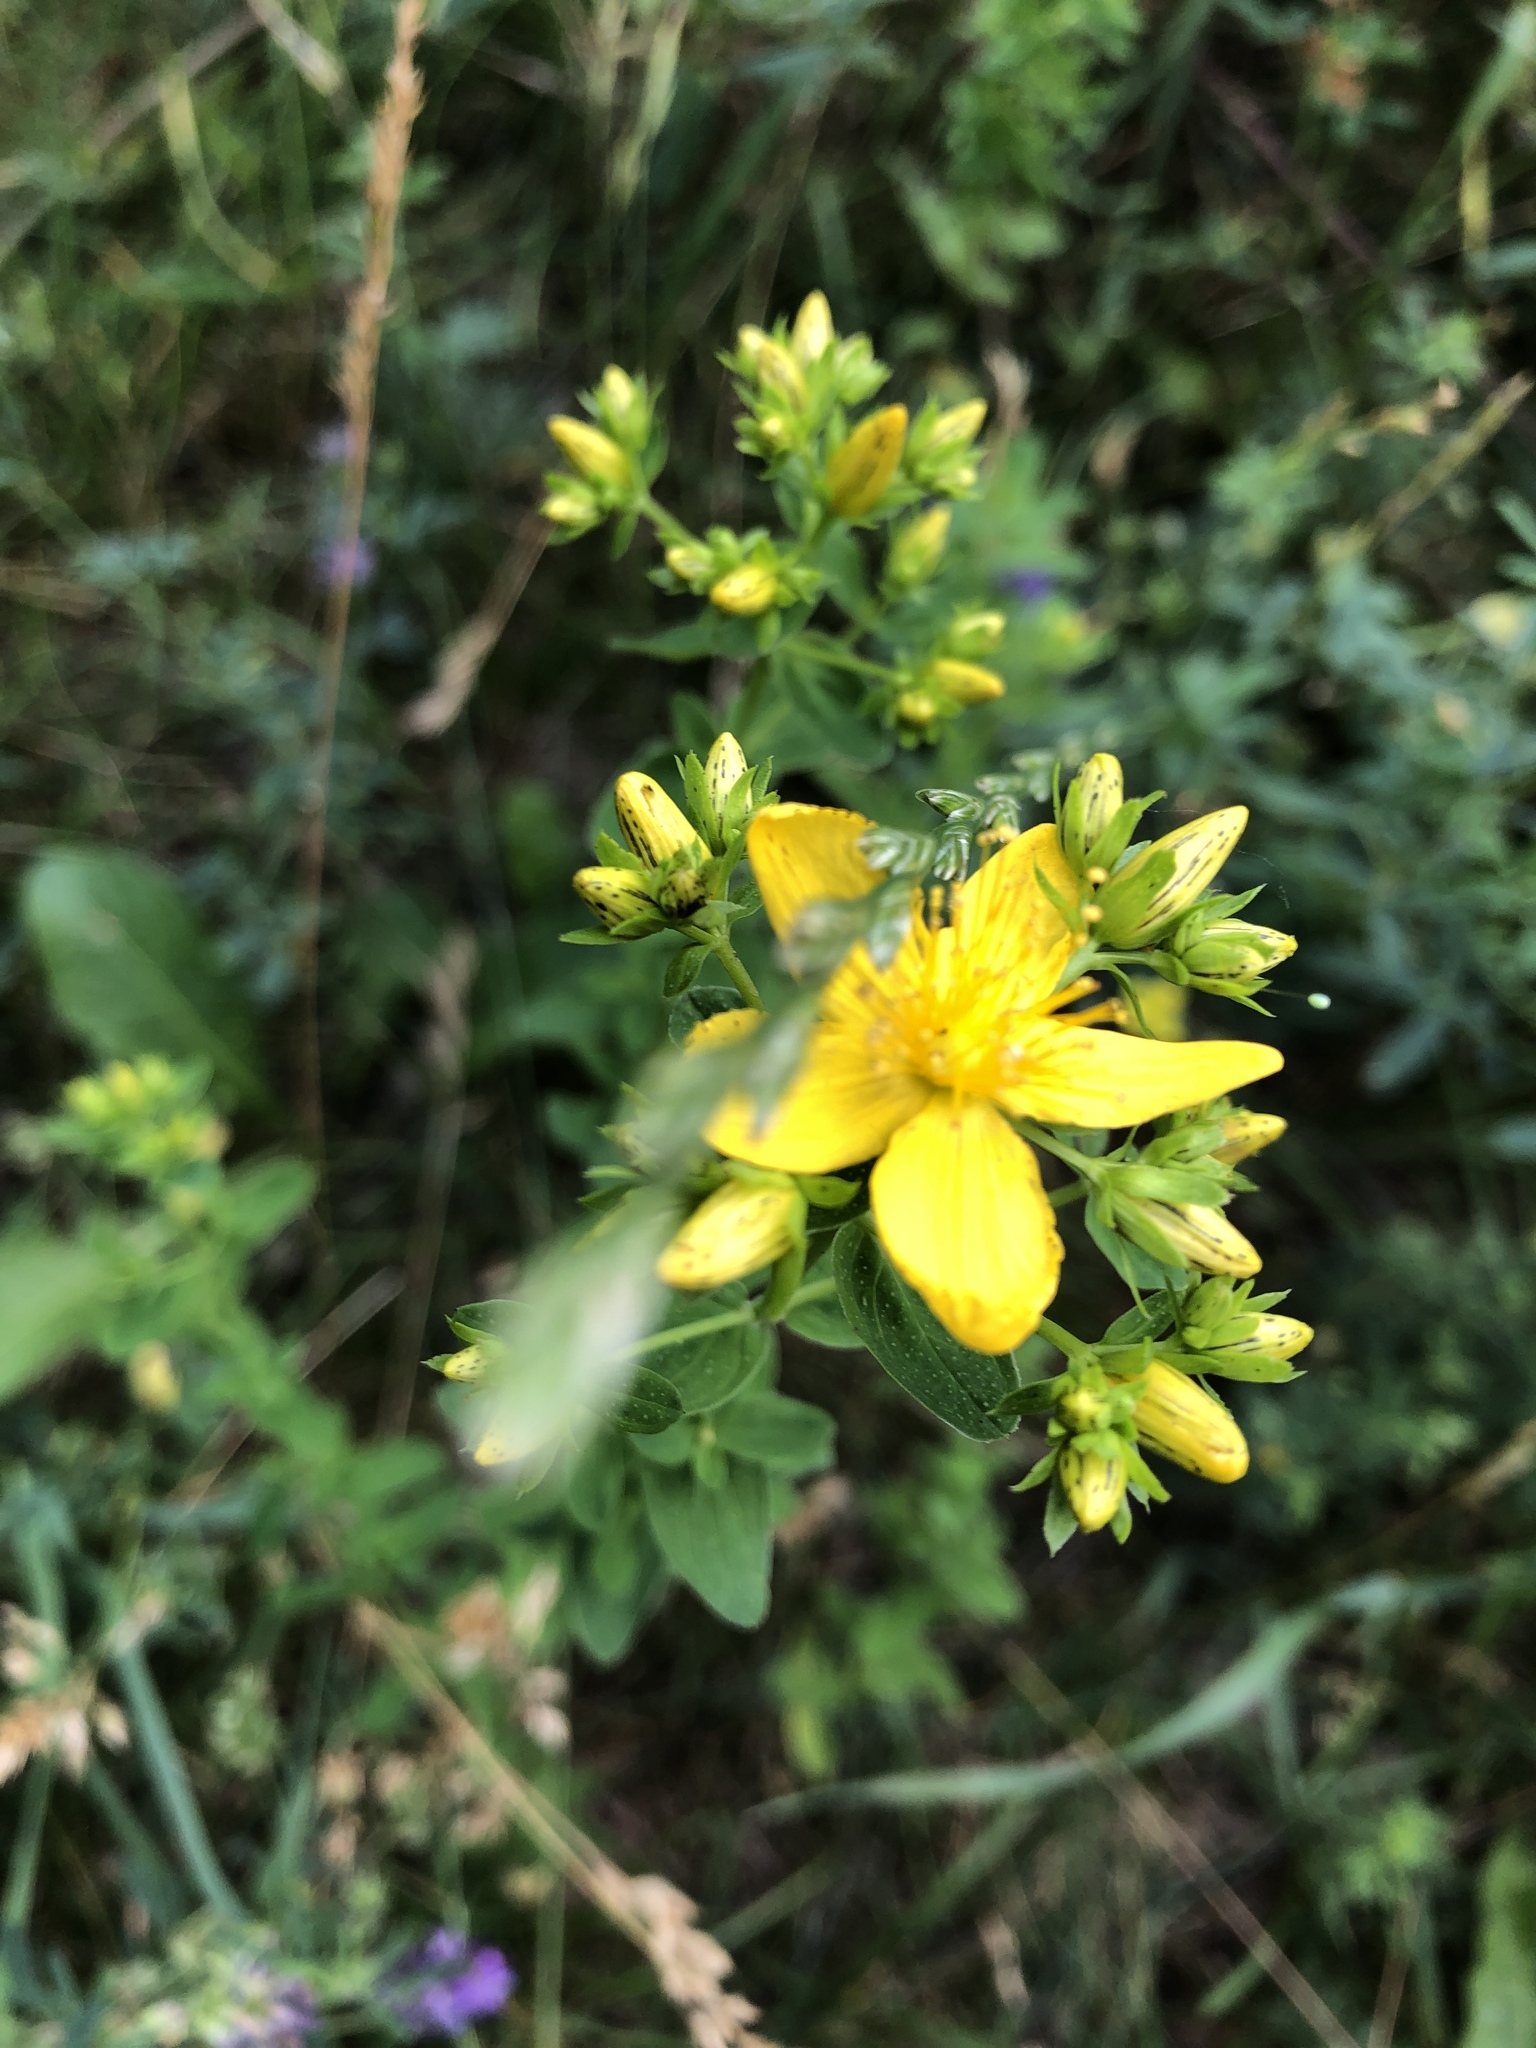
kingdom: Plantae
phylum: Tracheophyta
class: Magnoliopsida
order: Malpighiales
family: Hypericaceae
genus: Hypericum
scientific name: Hypericum perforatum
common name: Common st. johnswort
